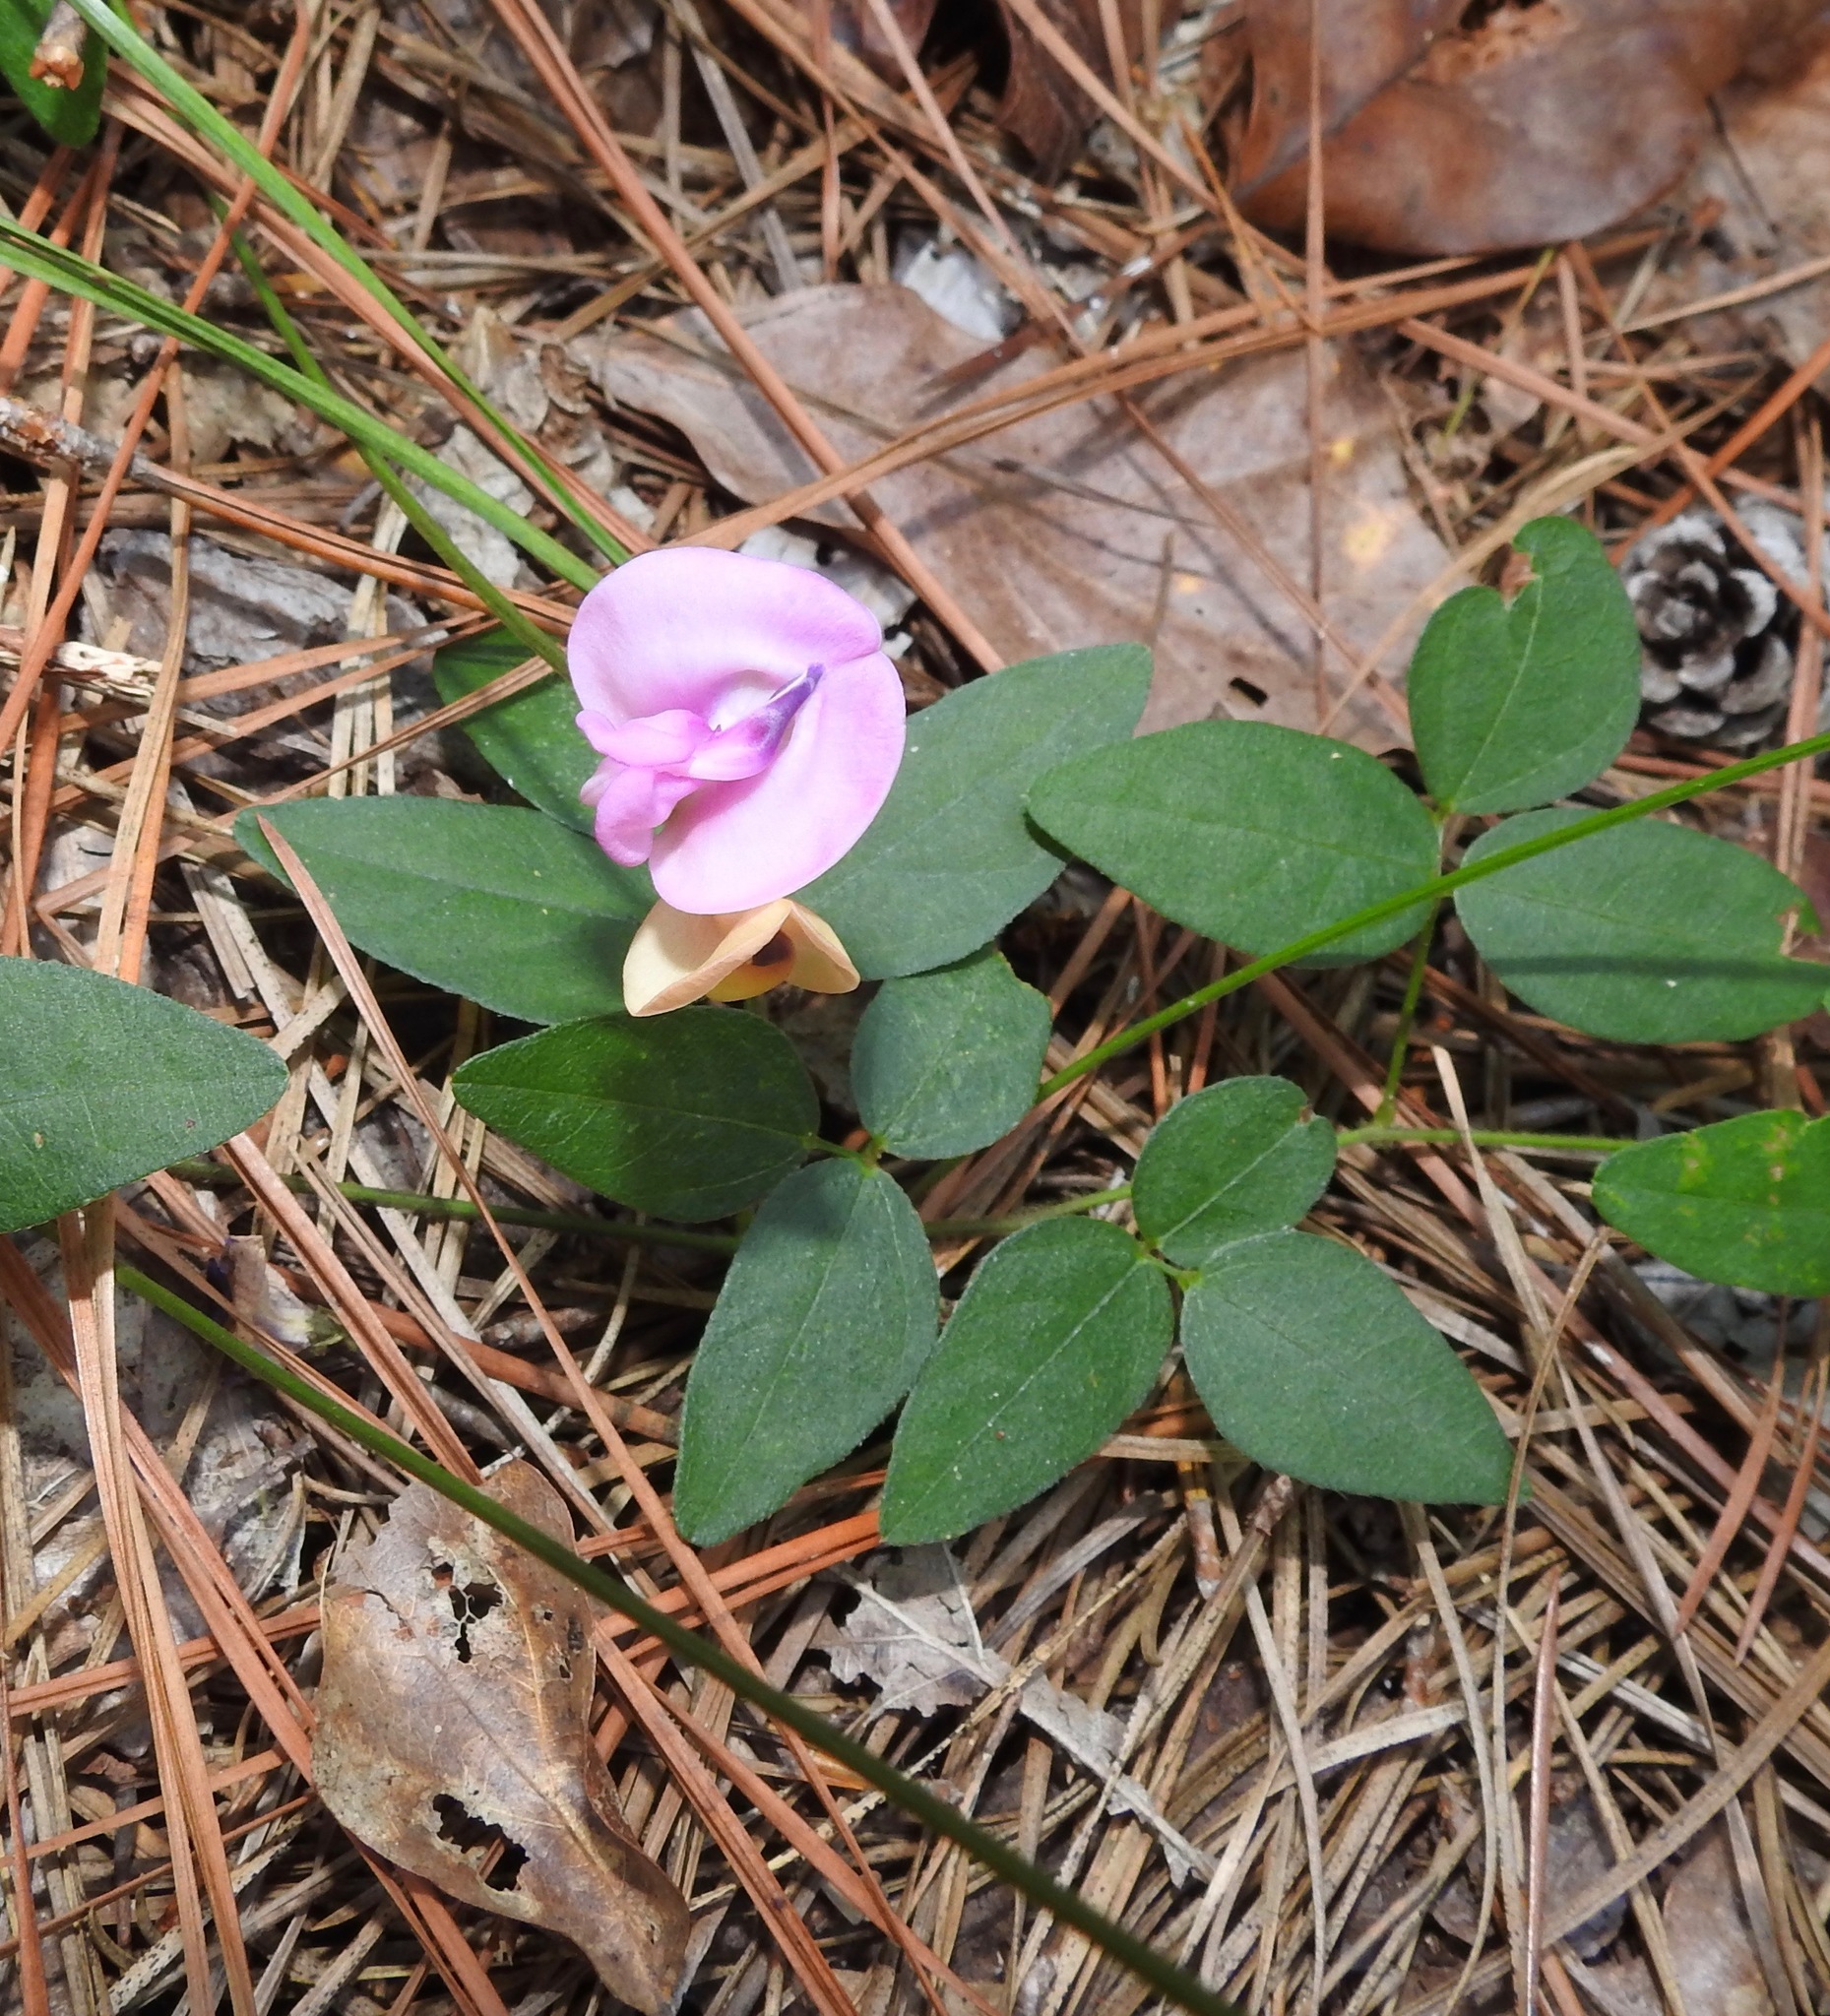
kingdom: Plantae
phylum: Tracheophyta
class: Magnoliopsida
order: Fabales
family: Fabaceae
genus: Strophostyles
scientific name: Strophostyles umbellata
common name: Perennial wild bean
